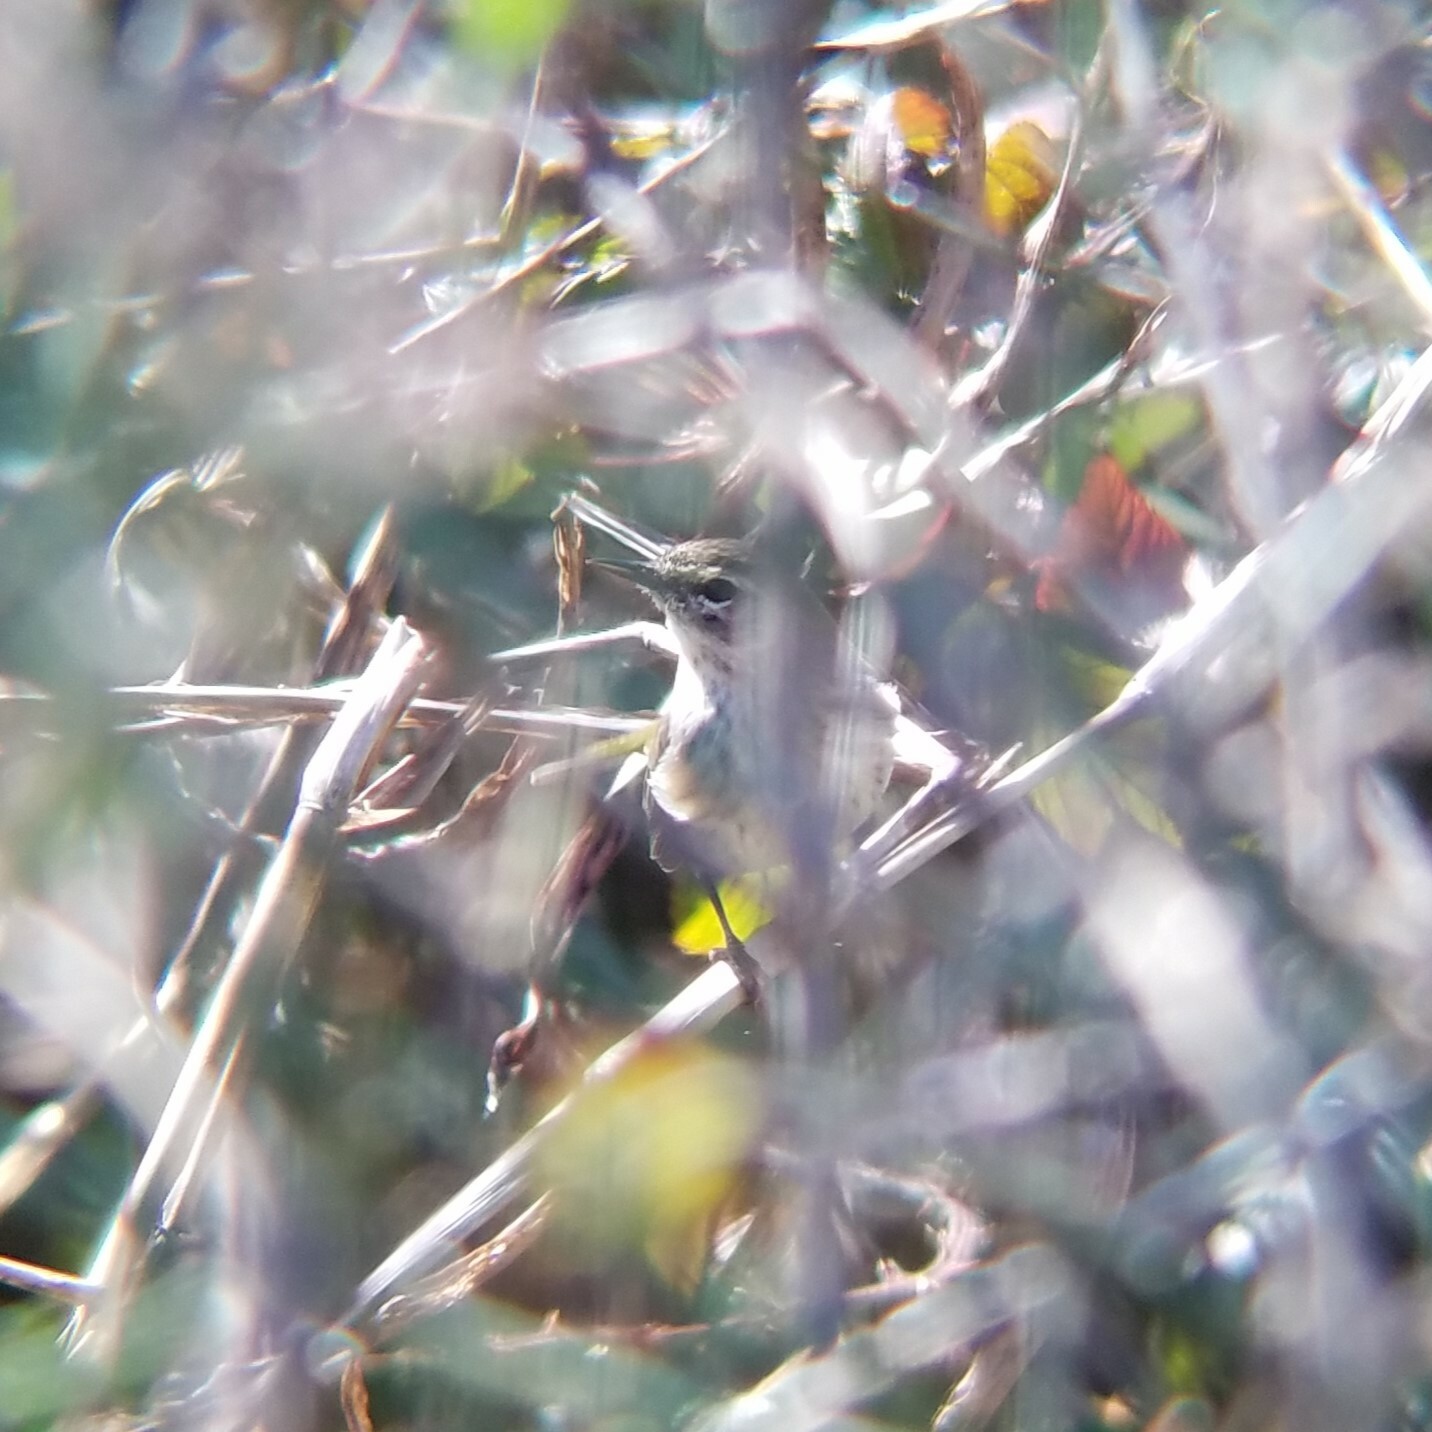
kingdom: Animalia
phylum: Chordata
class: Aves
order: Passeriformes
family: Parulidae
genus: Setophaga
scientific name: Setophaga palmarum
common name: Palm warbler
